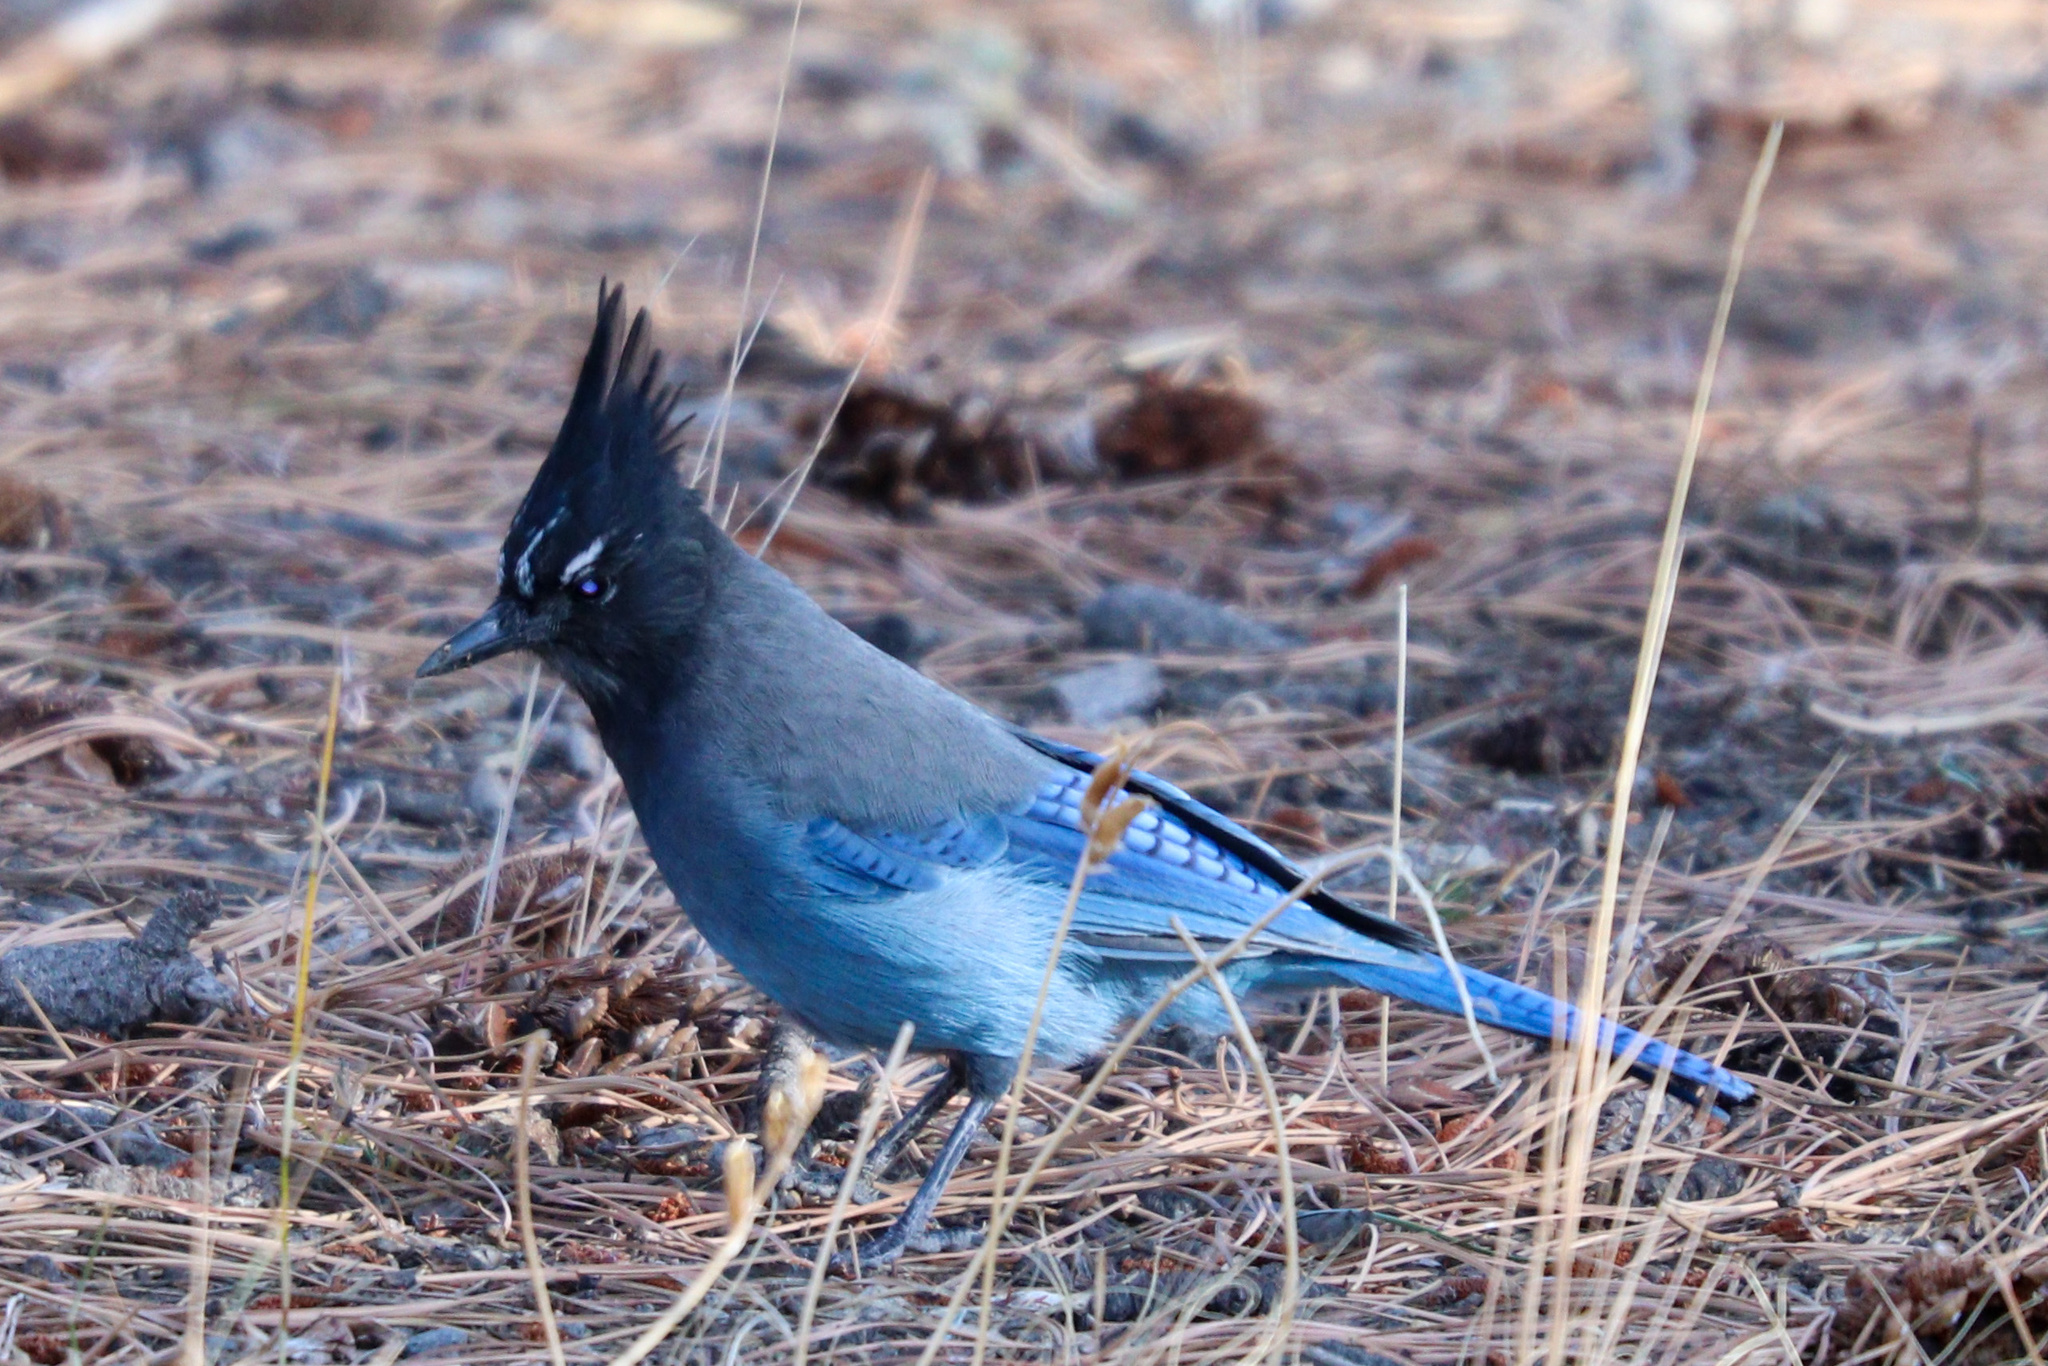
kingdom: Animalia
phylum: Chordata
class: Aves
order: Passeriformes
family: Corvidae
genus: Cyanocitta
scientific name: Cyanocitta stelleri
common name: Steller's jay
